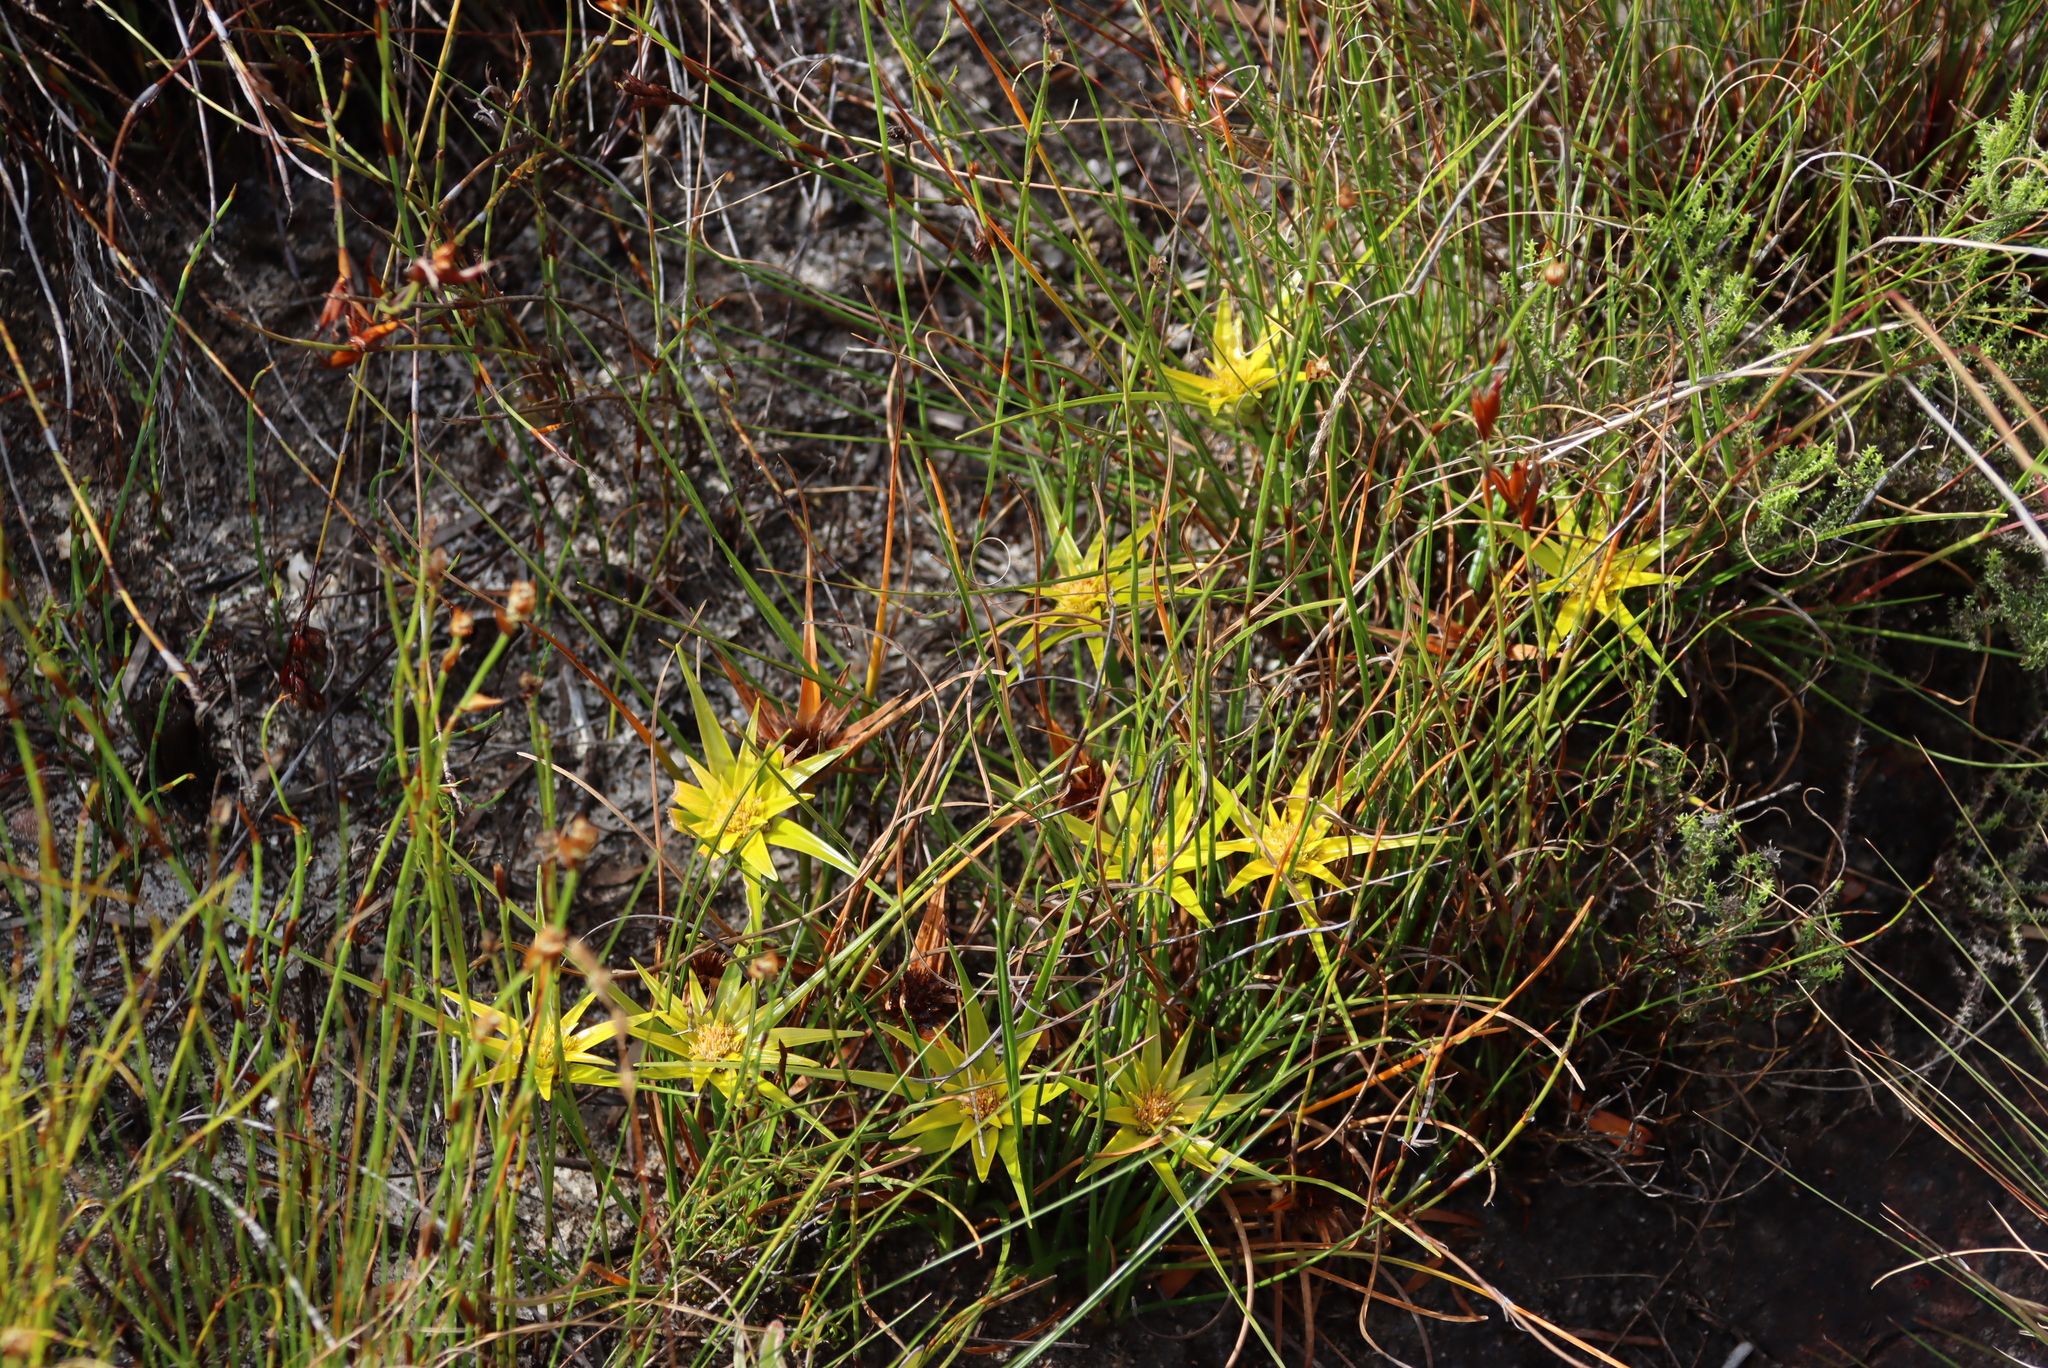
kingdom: Plantae
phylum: Tracheophyta
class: Liliopsida
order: Poales
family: Cyperaceae
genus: Ficinia
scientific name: Ficinia radiata
